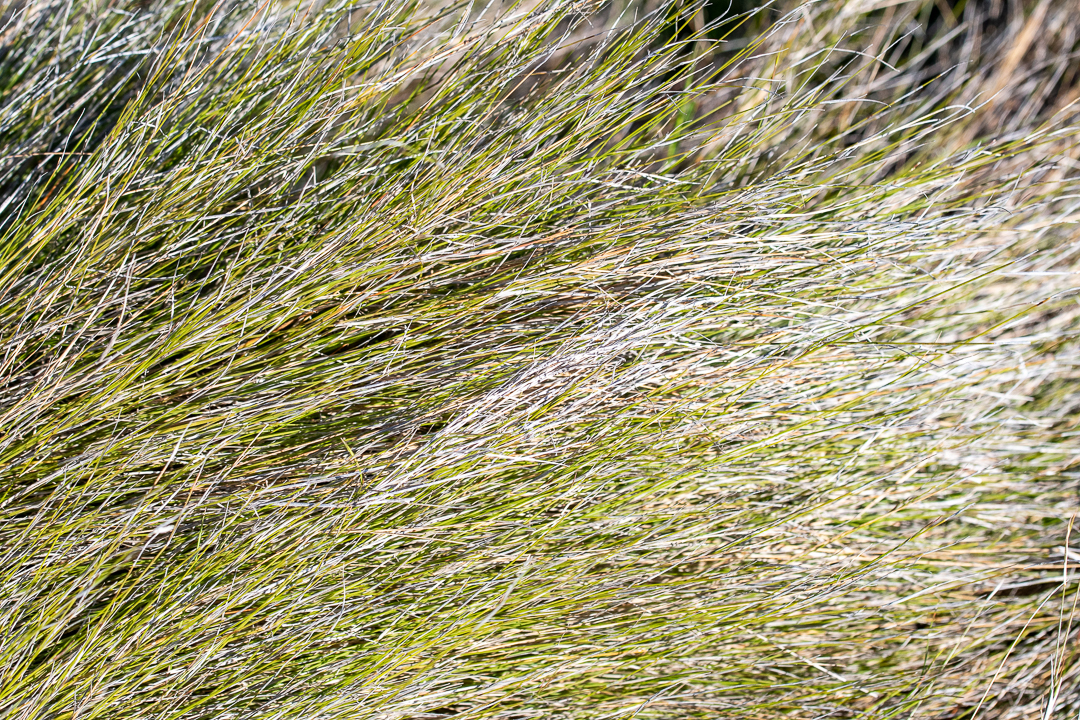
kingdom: Plantae
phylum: Tracheophyta
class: Liliopsida
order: Poales
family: Poaceae
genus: Ehrharta
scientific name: Ehrharta ramosa
